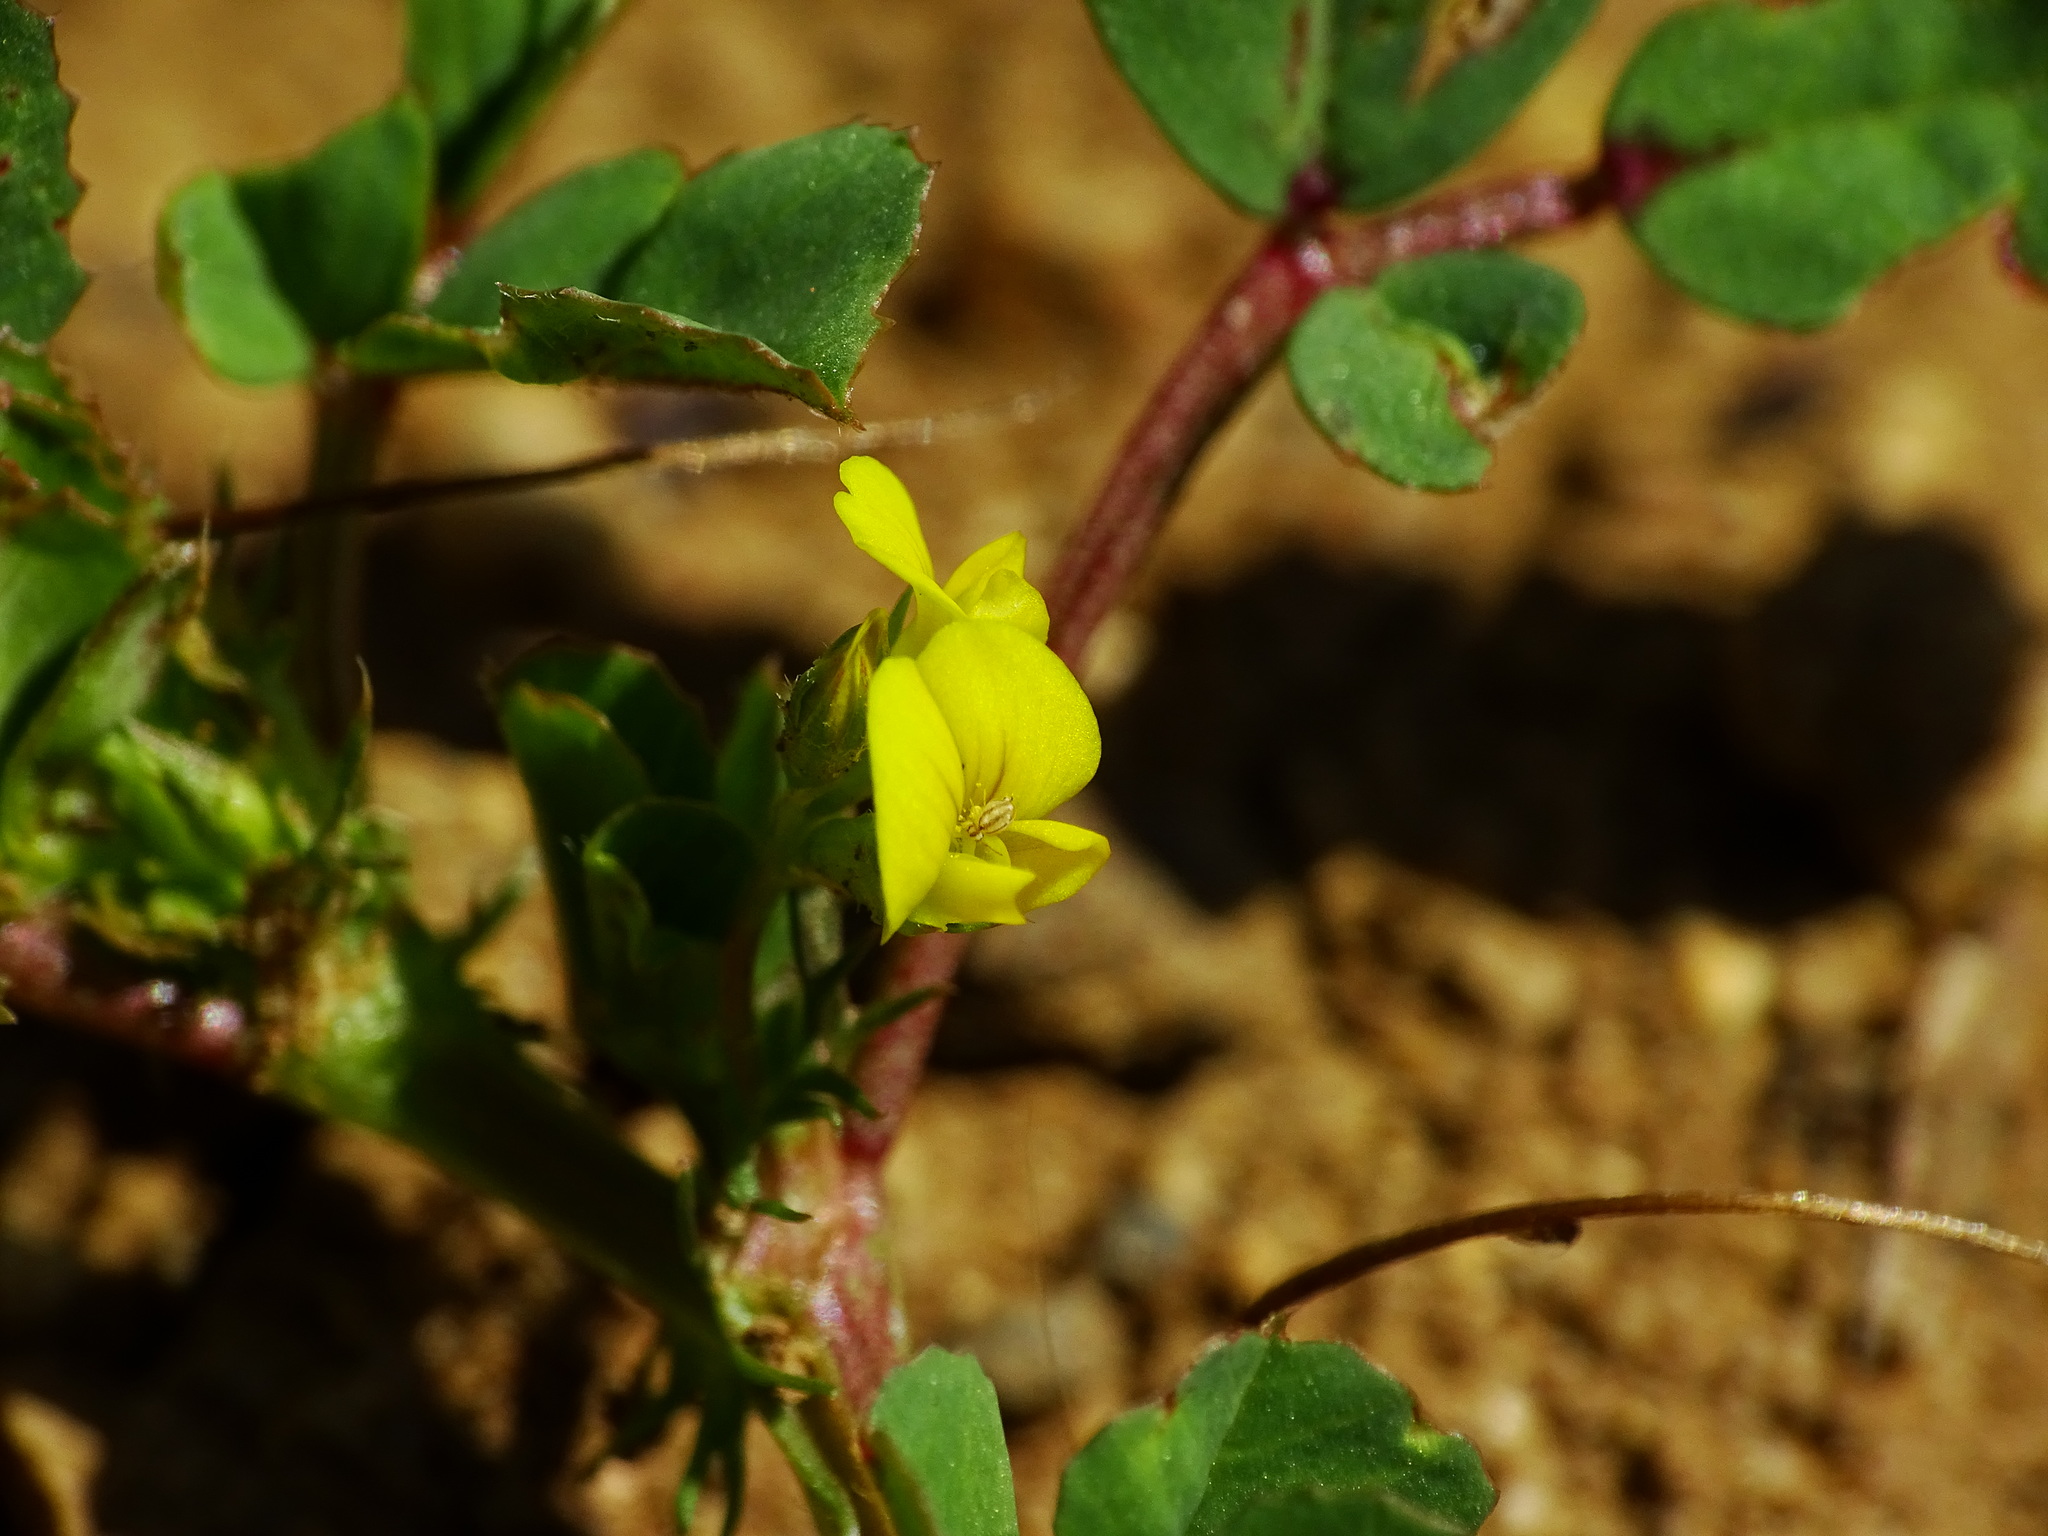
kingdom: Plantae
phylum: Tracheophyta
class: Magnoliopsida
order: Fabales
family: Fabaceae
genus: Medicago
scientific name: Medicago polymorpha
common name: Burclover
